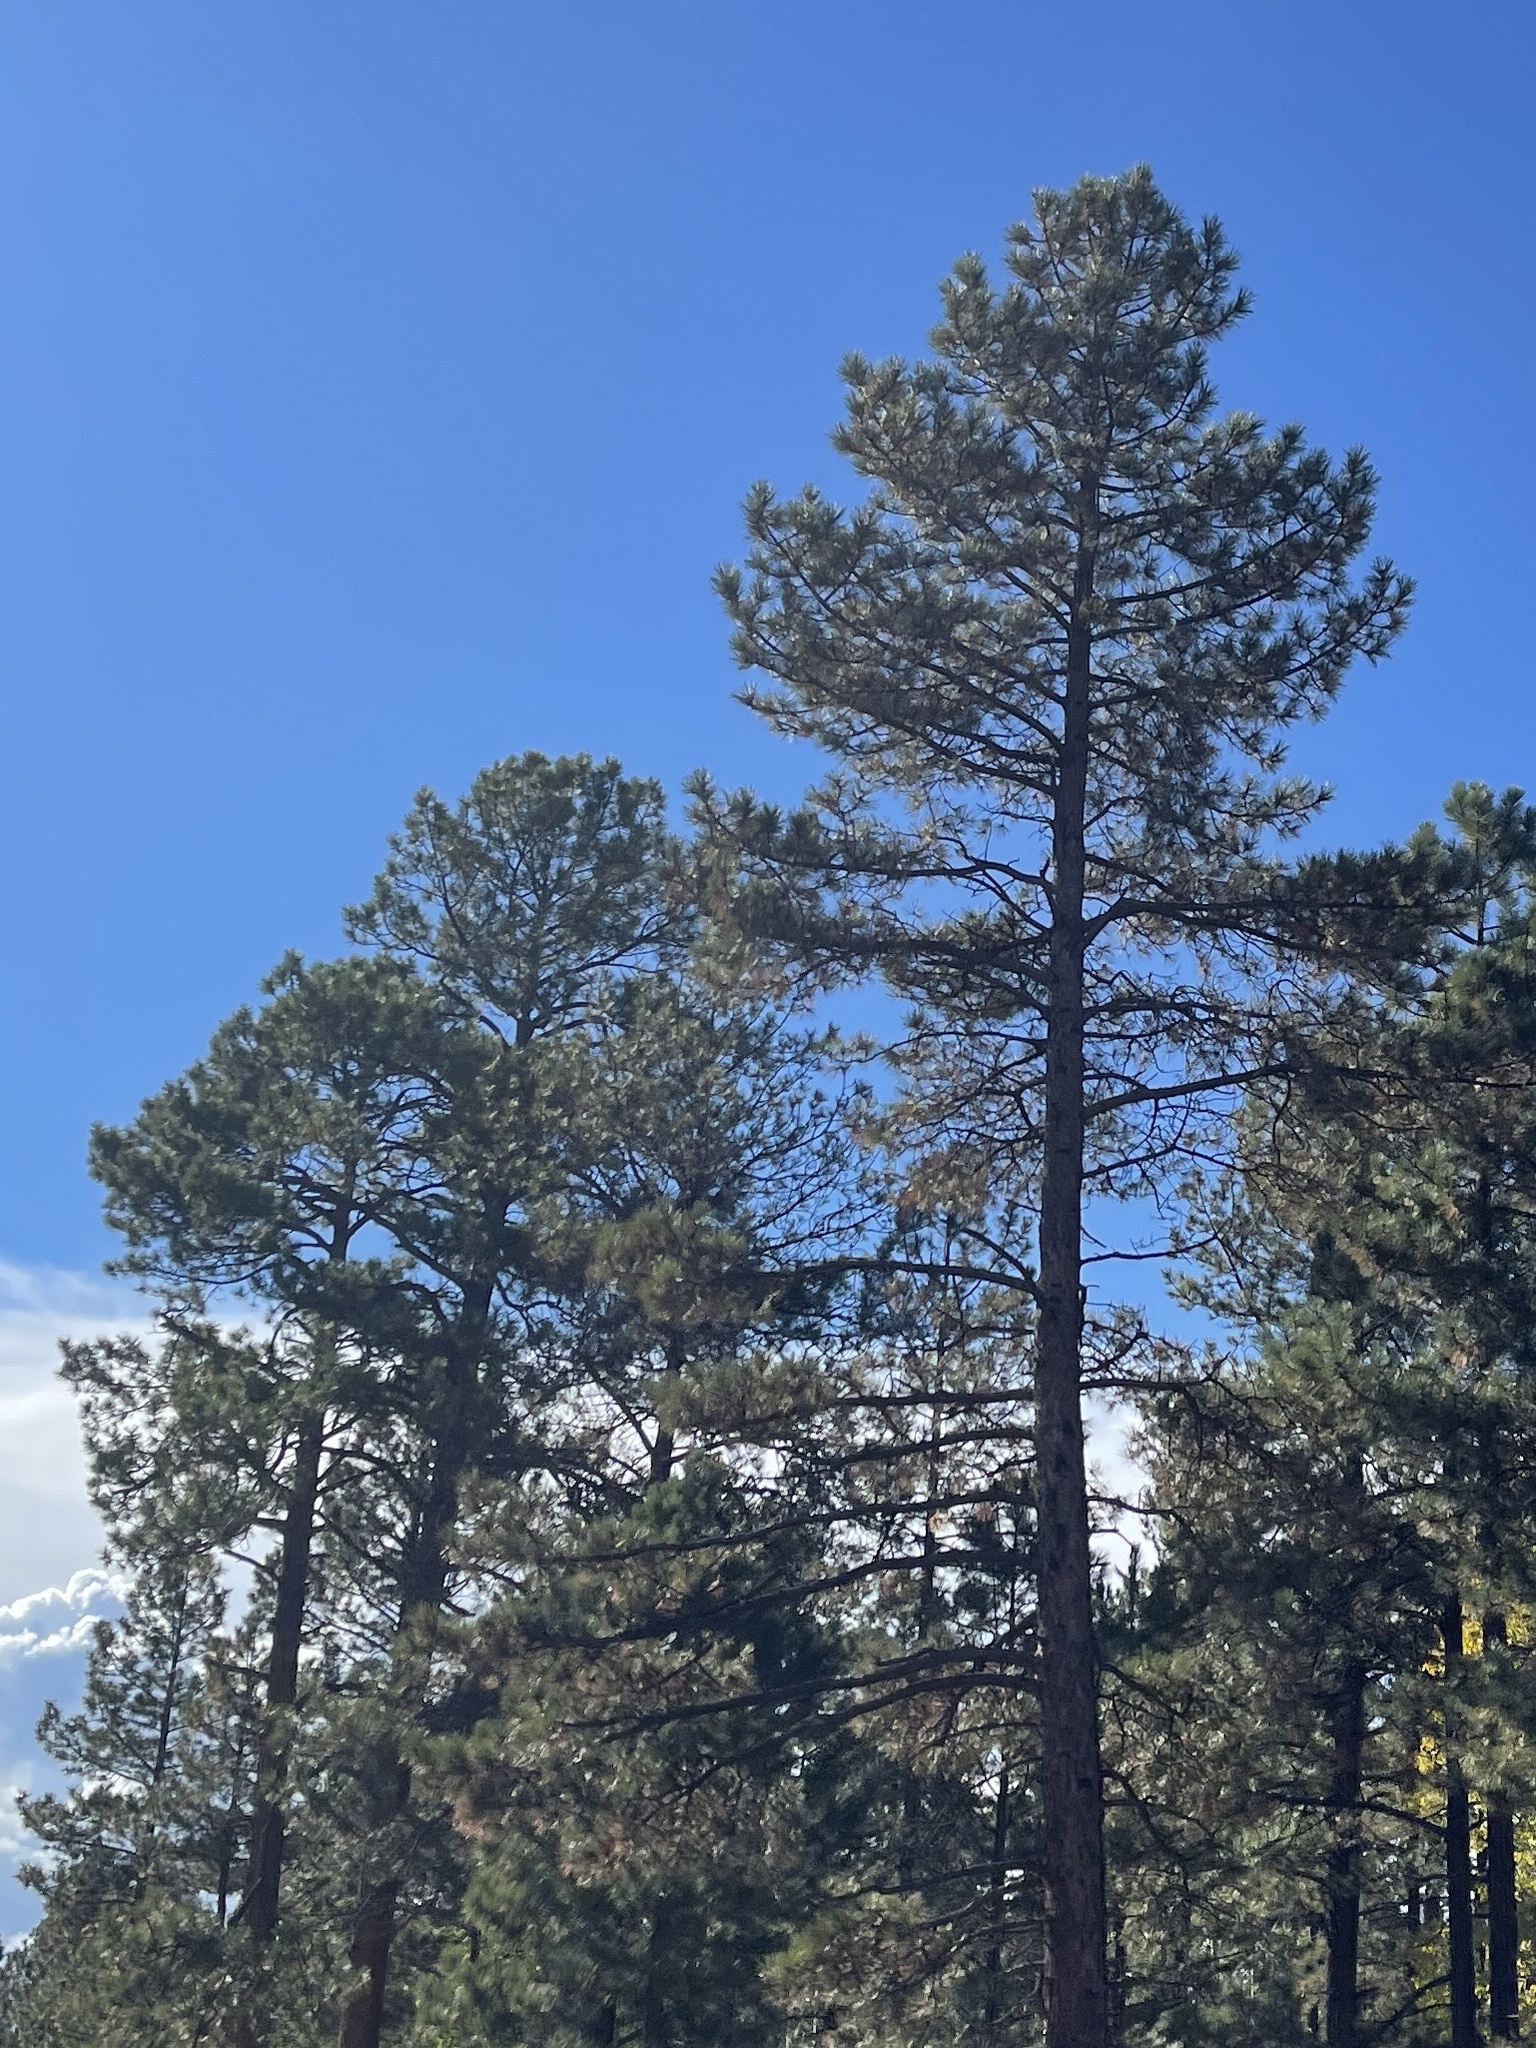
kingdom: Plantae
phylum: Tracheophyta
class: Pinopsida
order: Pinales
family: Pinaceae
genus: Pinus
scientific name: Pinus ponderosa
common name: Western yellow-pine
